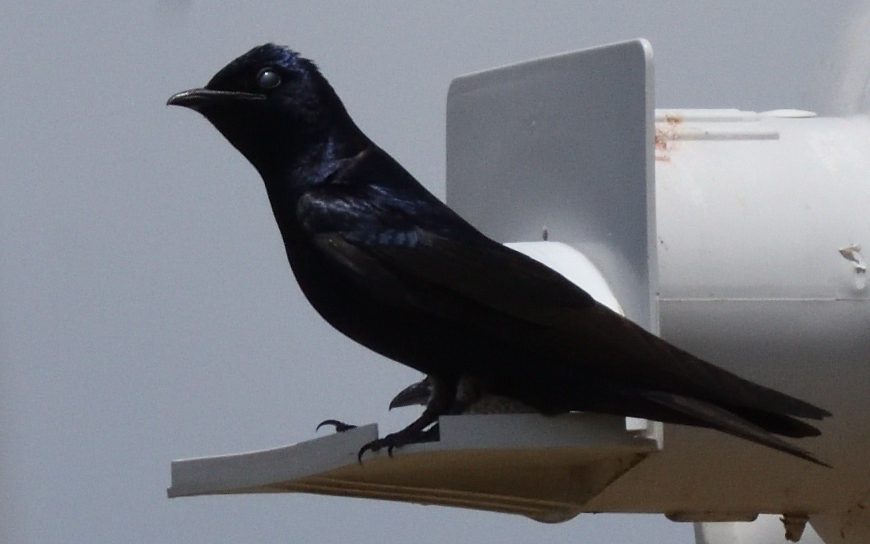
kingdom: Animalia
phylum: Chordata
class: Aves
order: Passeriformes
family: Hirundinidae
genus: Progne
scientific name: Progne subis
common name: Purple martin
